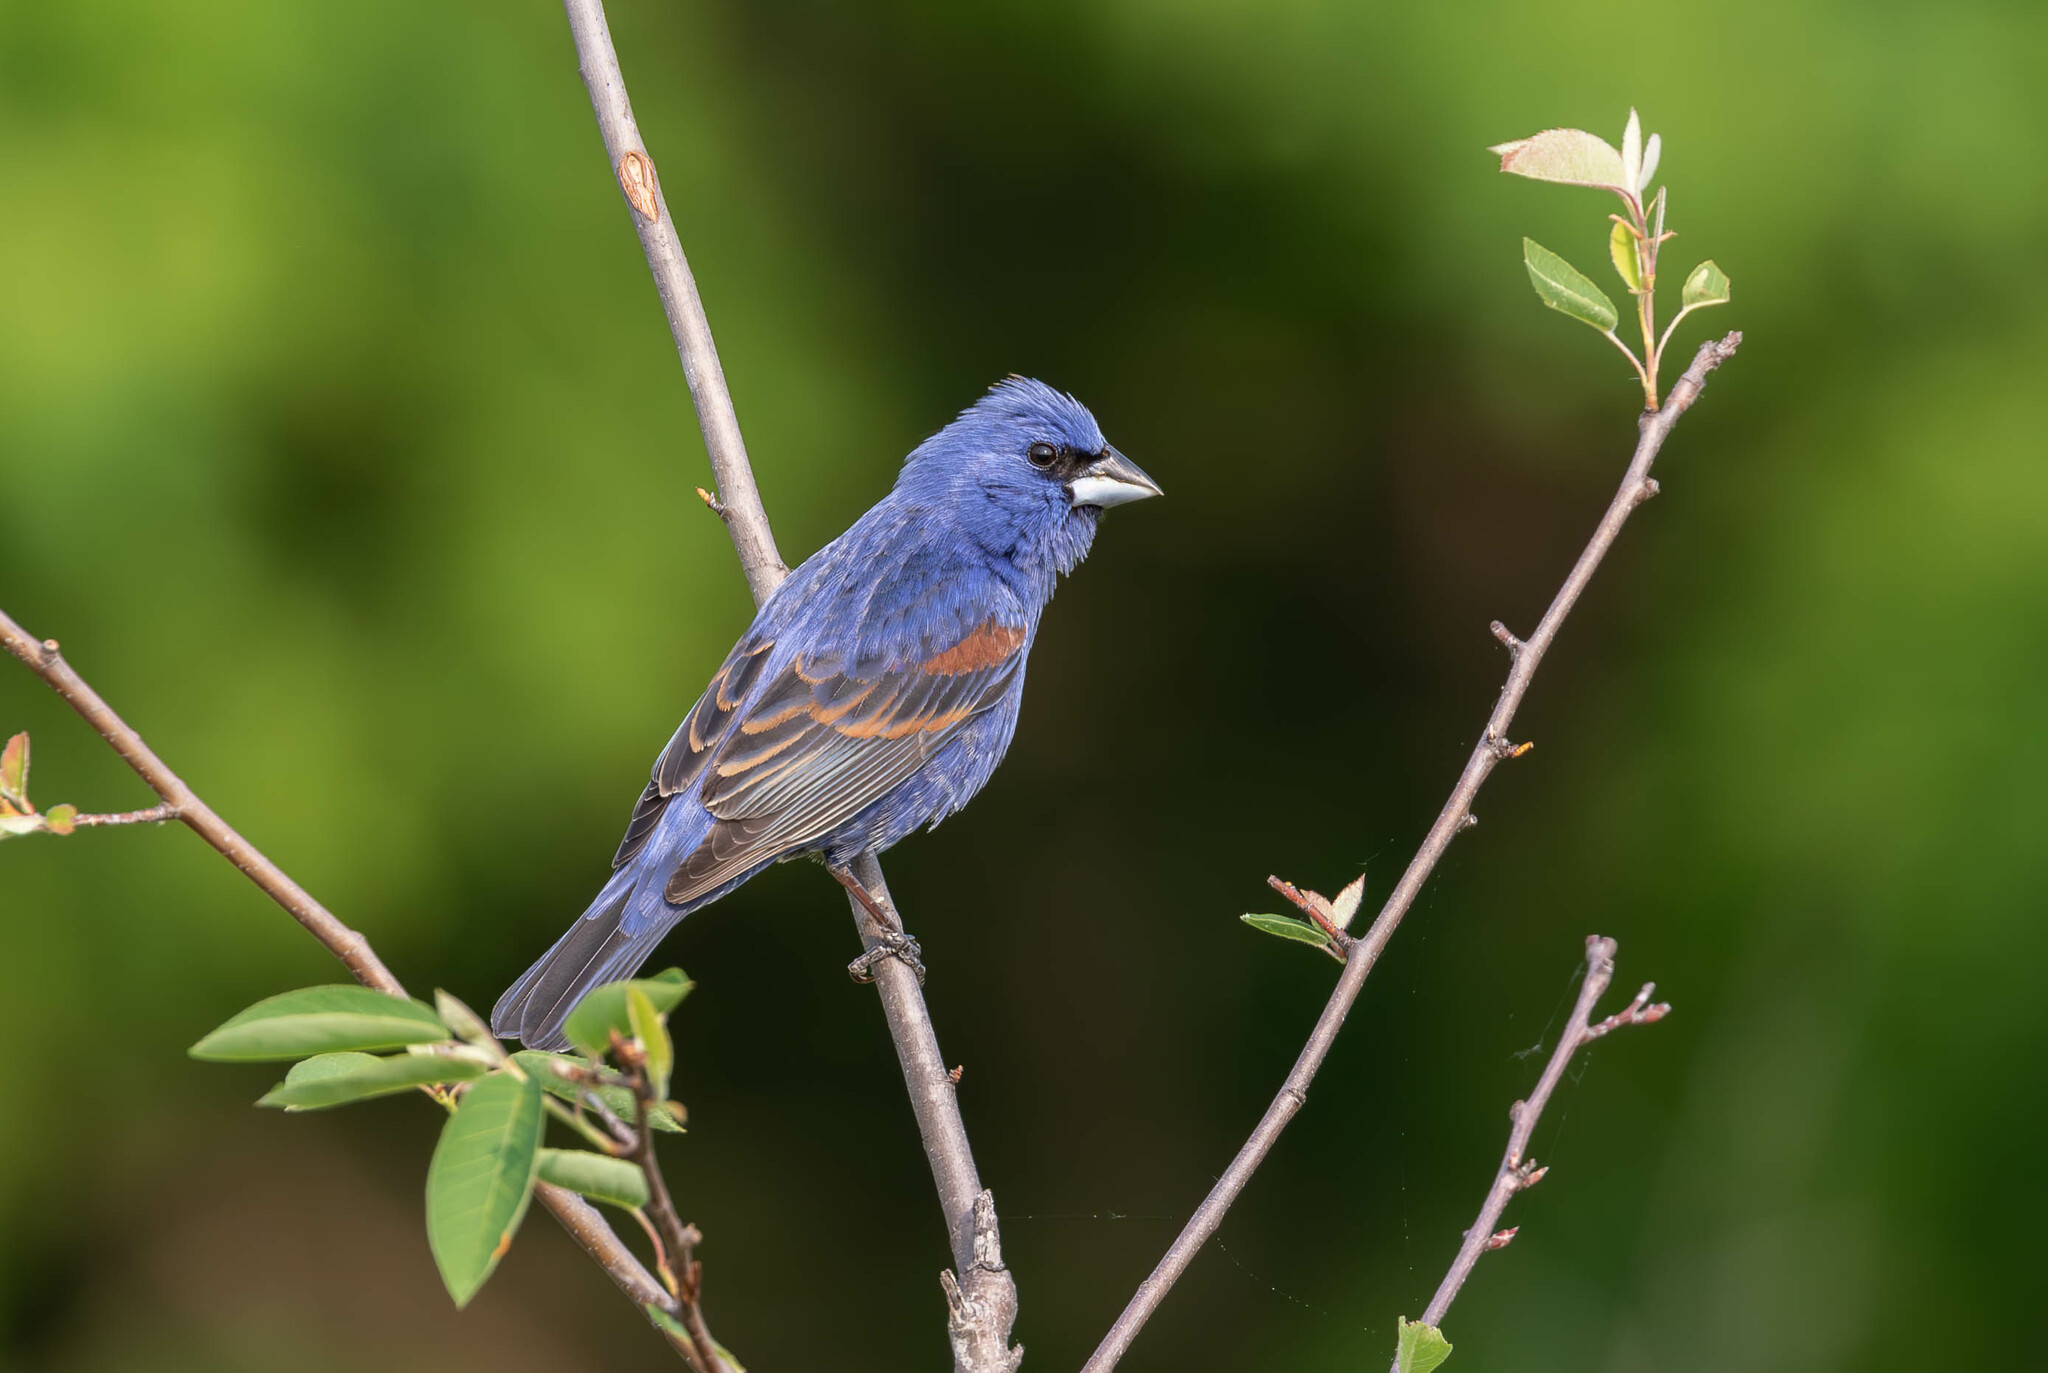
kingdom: Animalia
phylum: Chordata
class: Aves
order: Passeriformes
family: Cardinalidae
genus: Passerina
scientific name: Passerina caerulea
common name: Blue grosbeak
